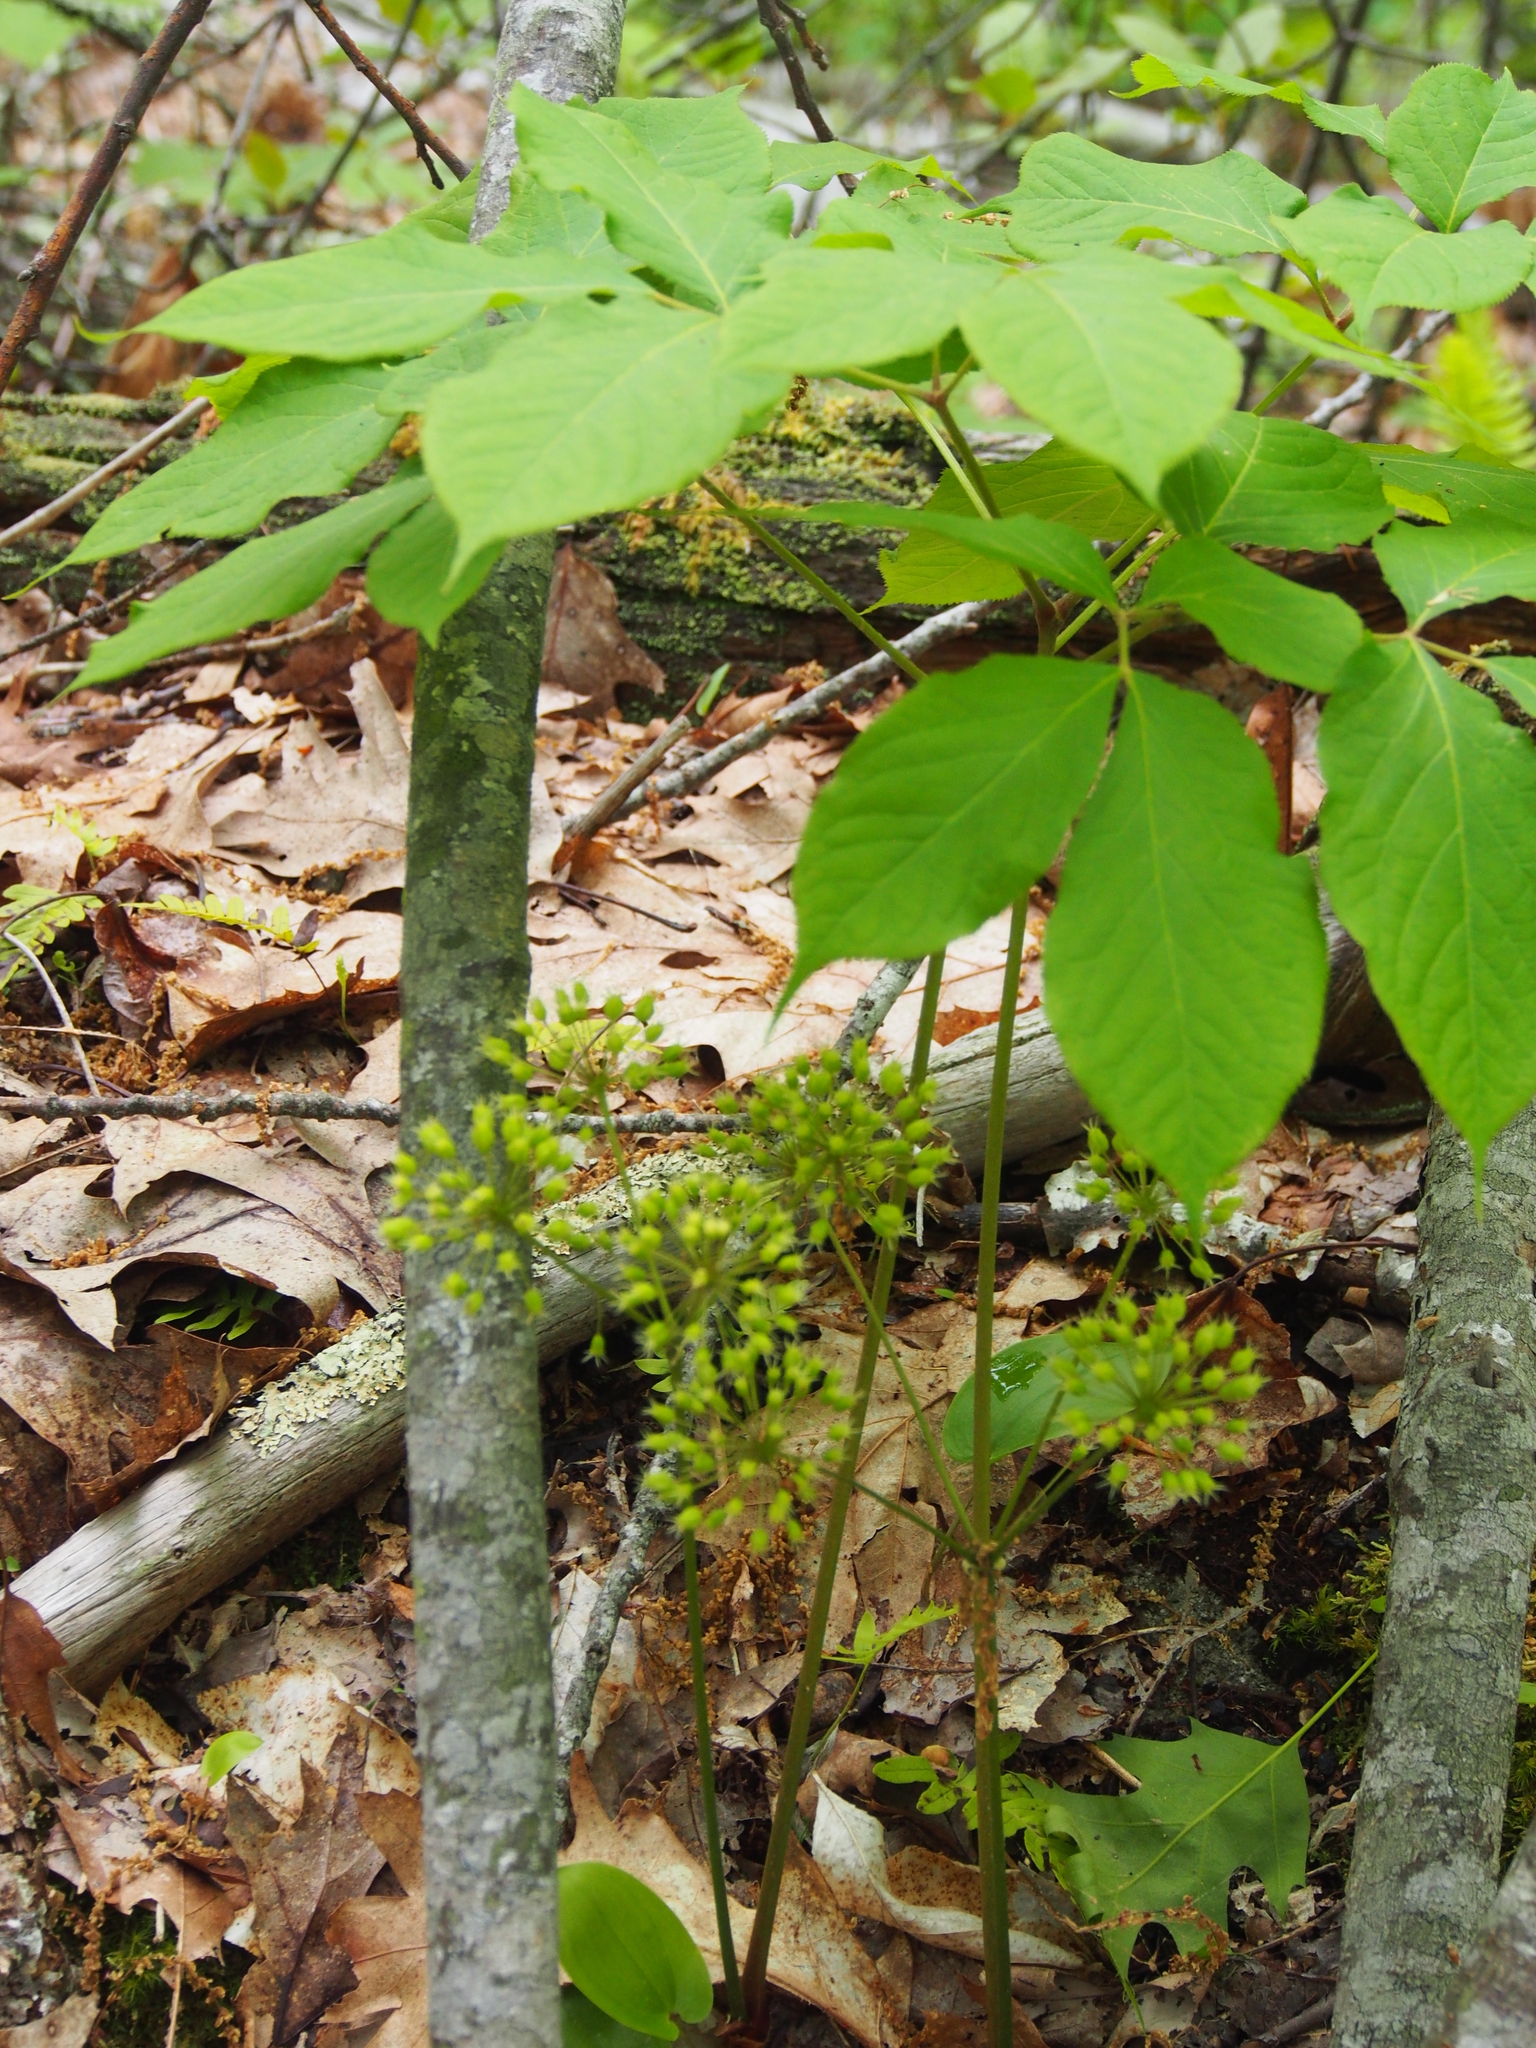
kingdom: Plantae
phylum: Tracheophyta
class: Magnoliopsida
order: Apiales
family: Araliaceae
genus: Aralia
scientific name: Aralia nudicaulis
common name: Wild sarsaparilla
